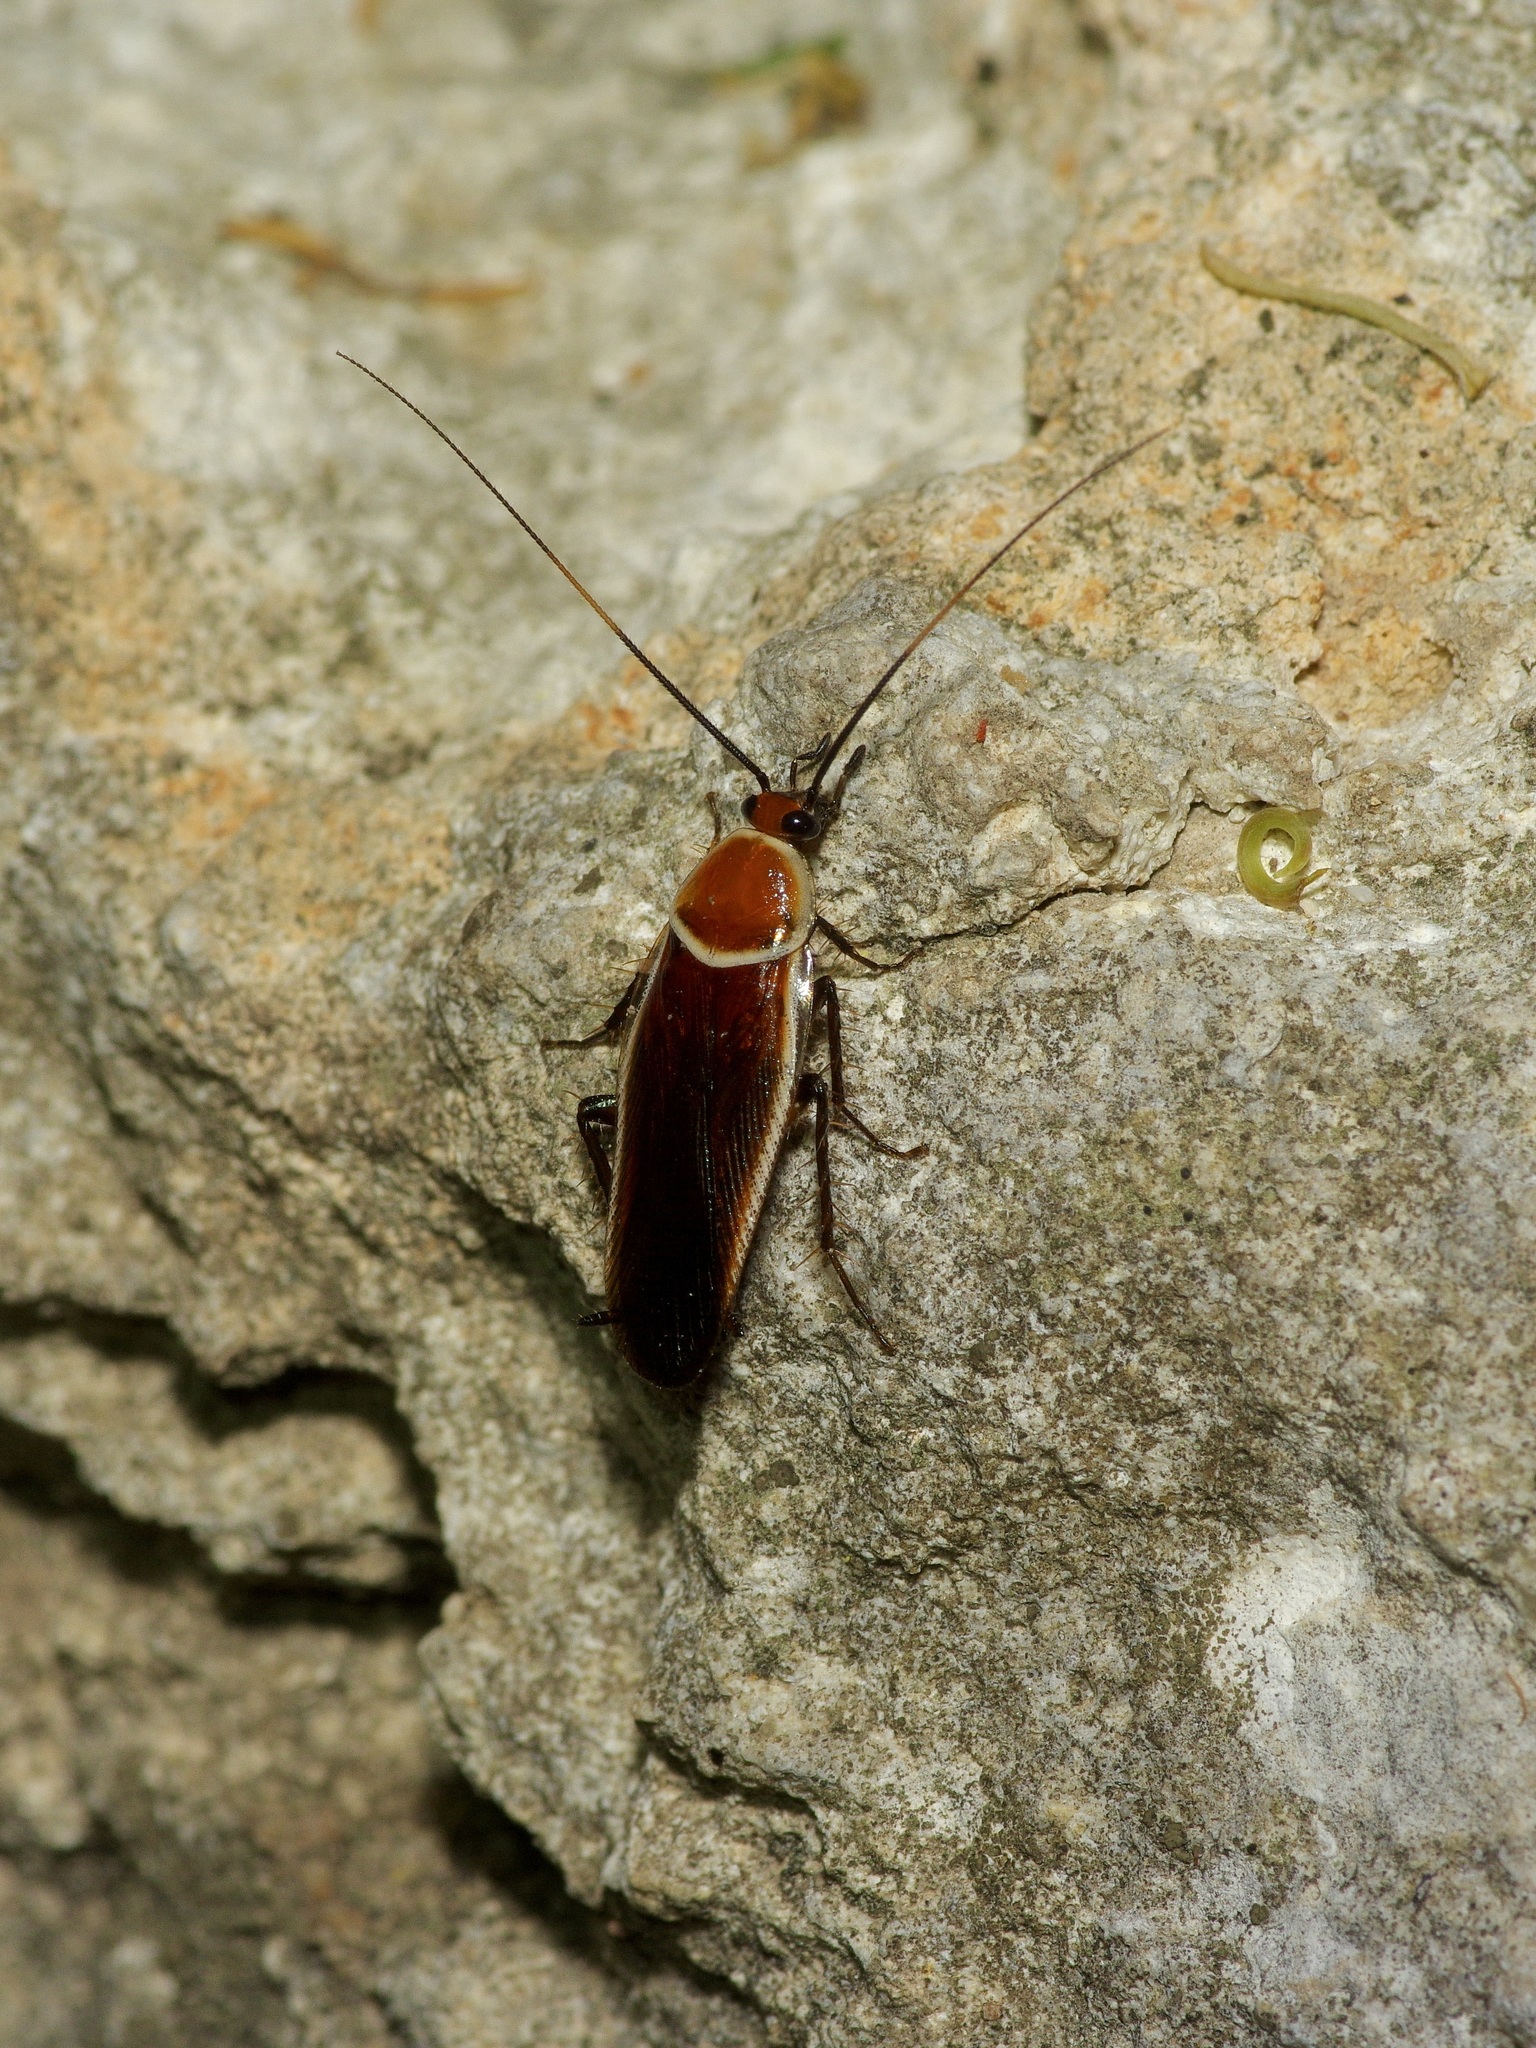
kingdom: Animalia
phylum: Arthropoda
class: Insecta
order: Blattodea
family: Ectobiidae
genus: Pseudomops
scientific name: Pseudomops septentrionalis
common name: Pale-bordered field cockroach
